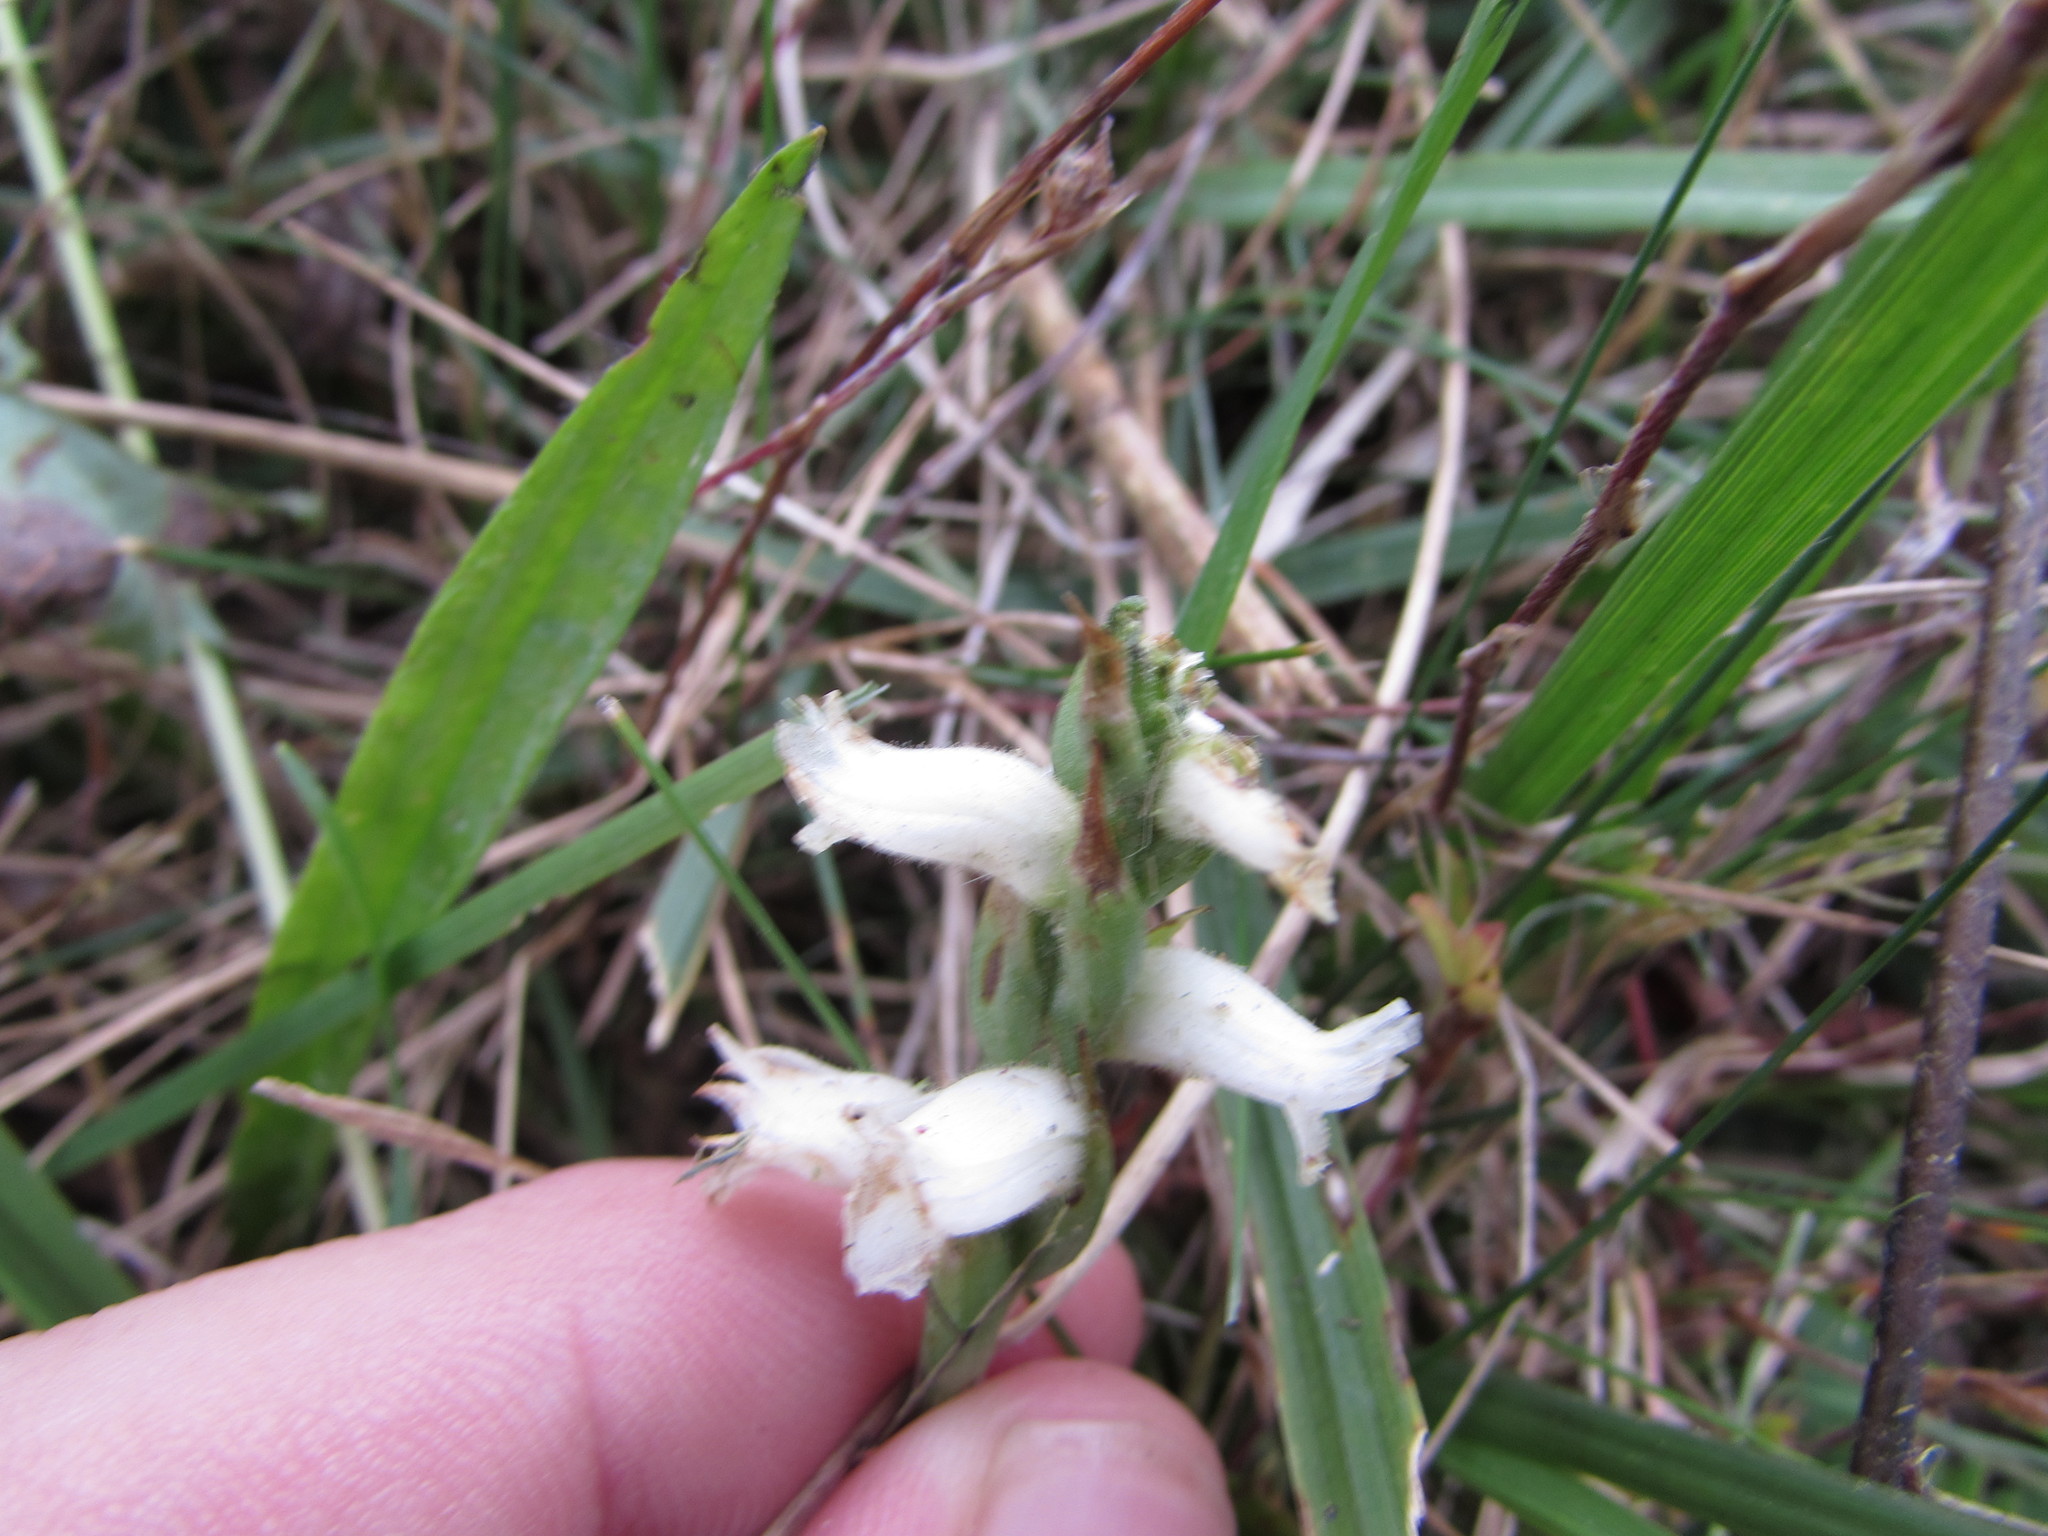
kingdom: Plantae
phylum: Tracheophyta
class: Liliopsida
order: Asparagales
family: Orchidaceae
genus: Spiranthes
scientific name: Spiranthes cernua
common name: Dropping ladies'-tresses
